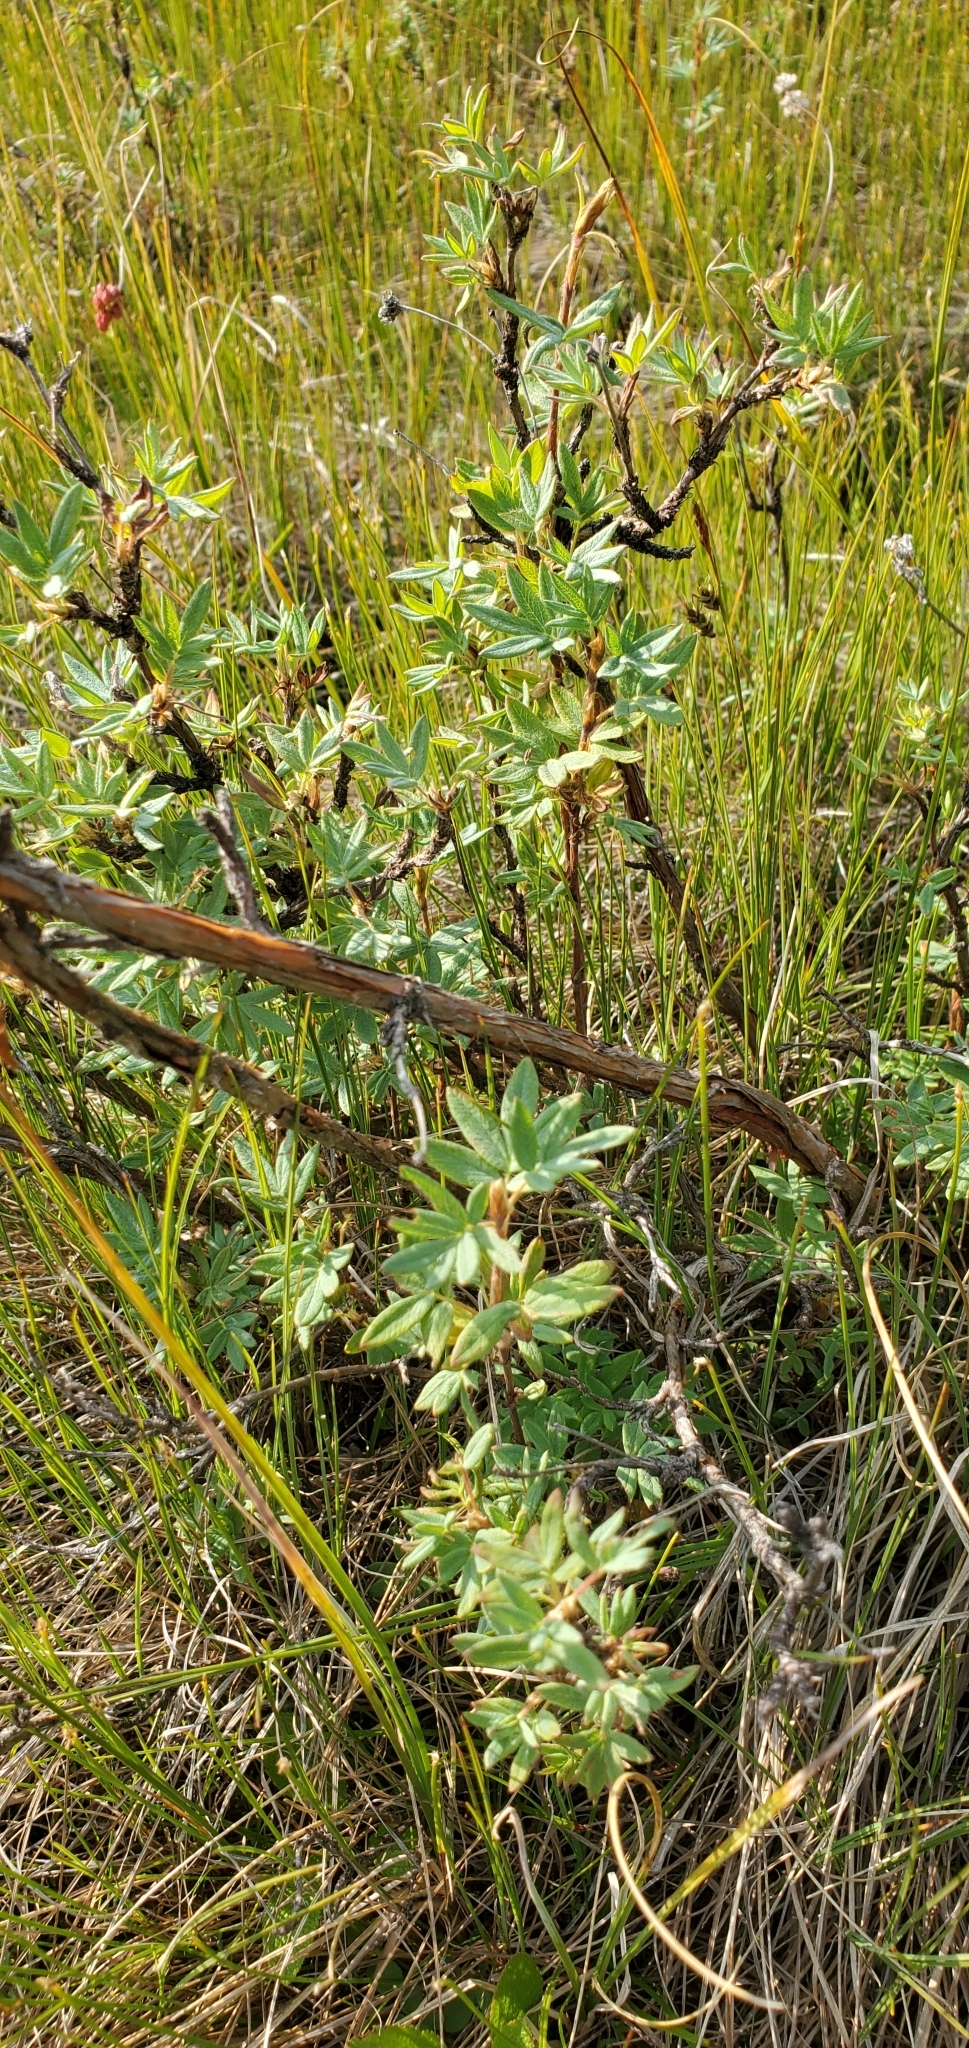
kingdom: Plantae
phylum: Tracheophyta
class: Magnoliopsida
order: Rosales
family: Rosaceae
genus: Dasiphora
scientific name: Dasiphora fruticosa
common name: Shrubby cinquefoil
